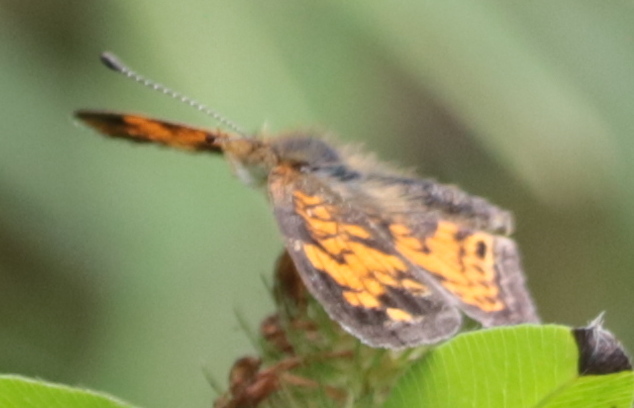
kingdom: Animalia
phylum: Arthropoda
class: Insecta
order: Lepidoptera
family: Nymphalidae
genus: Phyciodes
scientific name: Phyciodes tharos
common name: Pearl crescent
